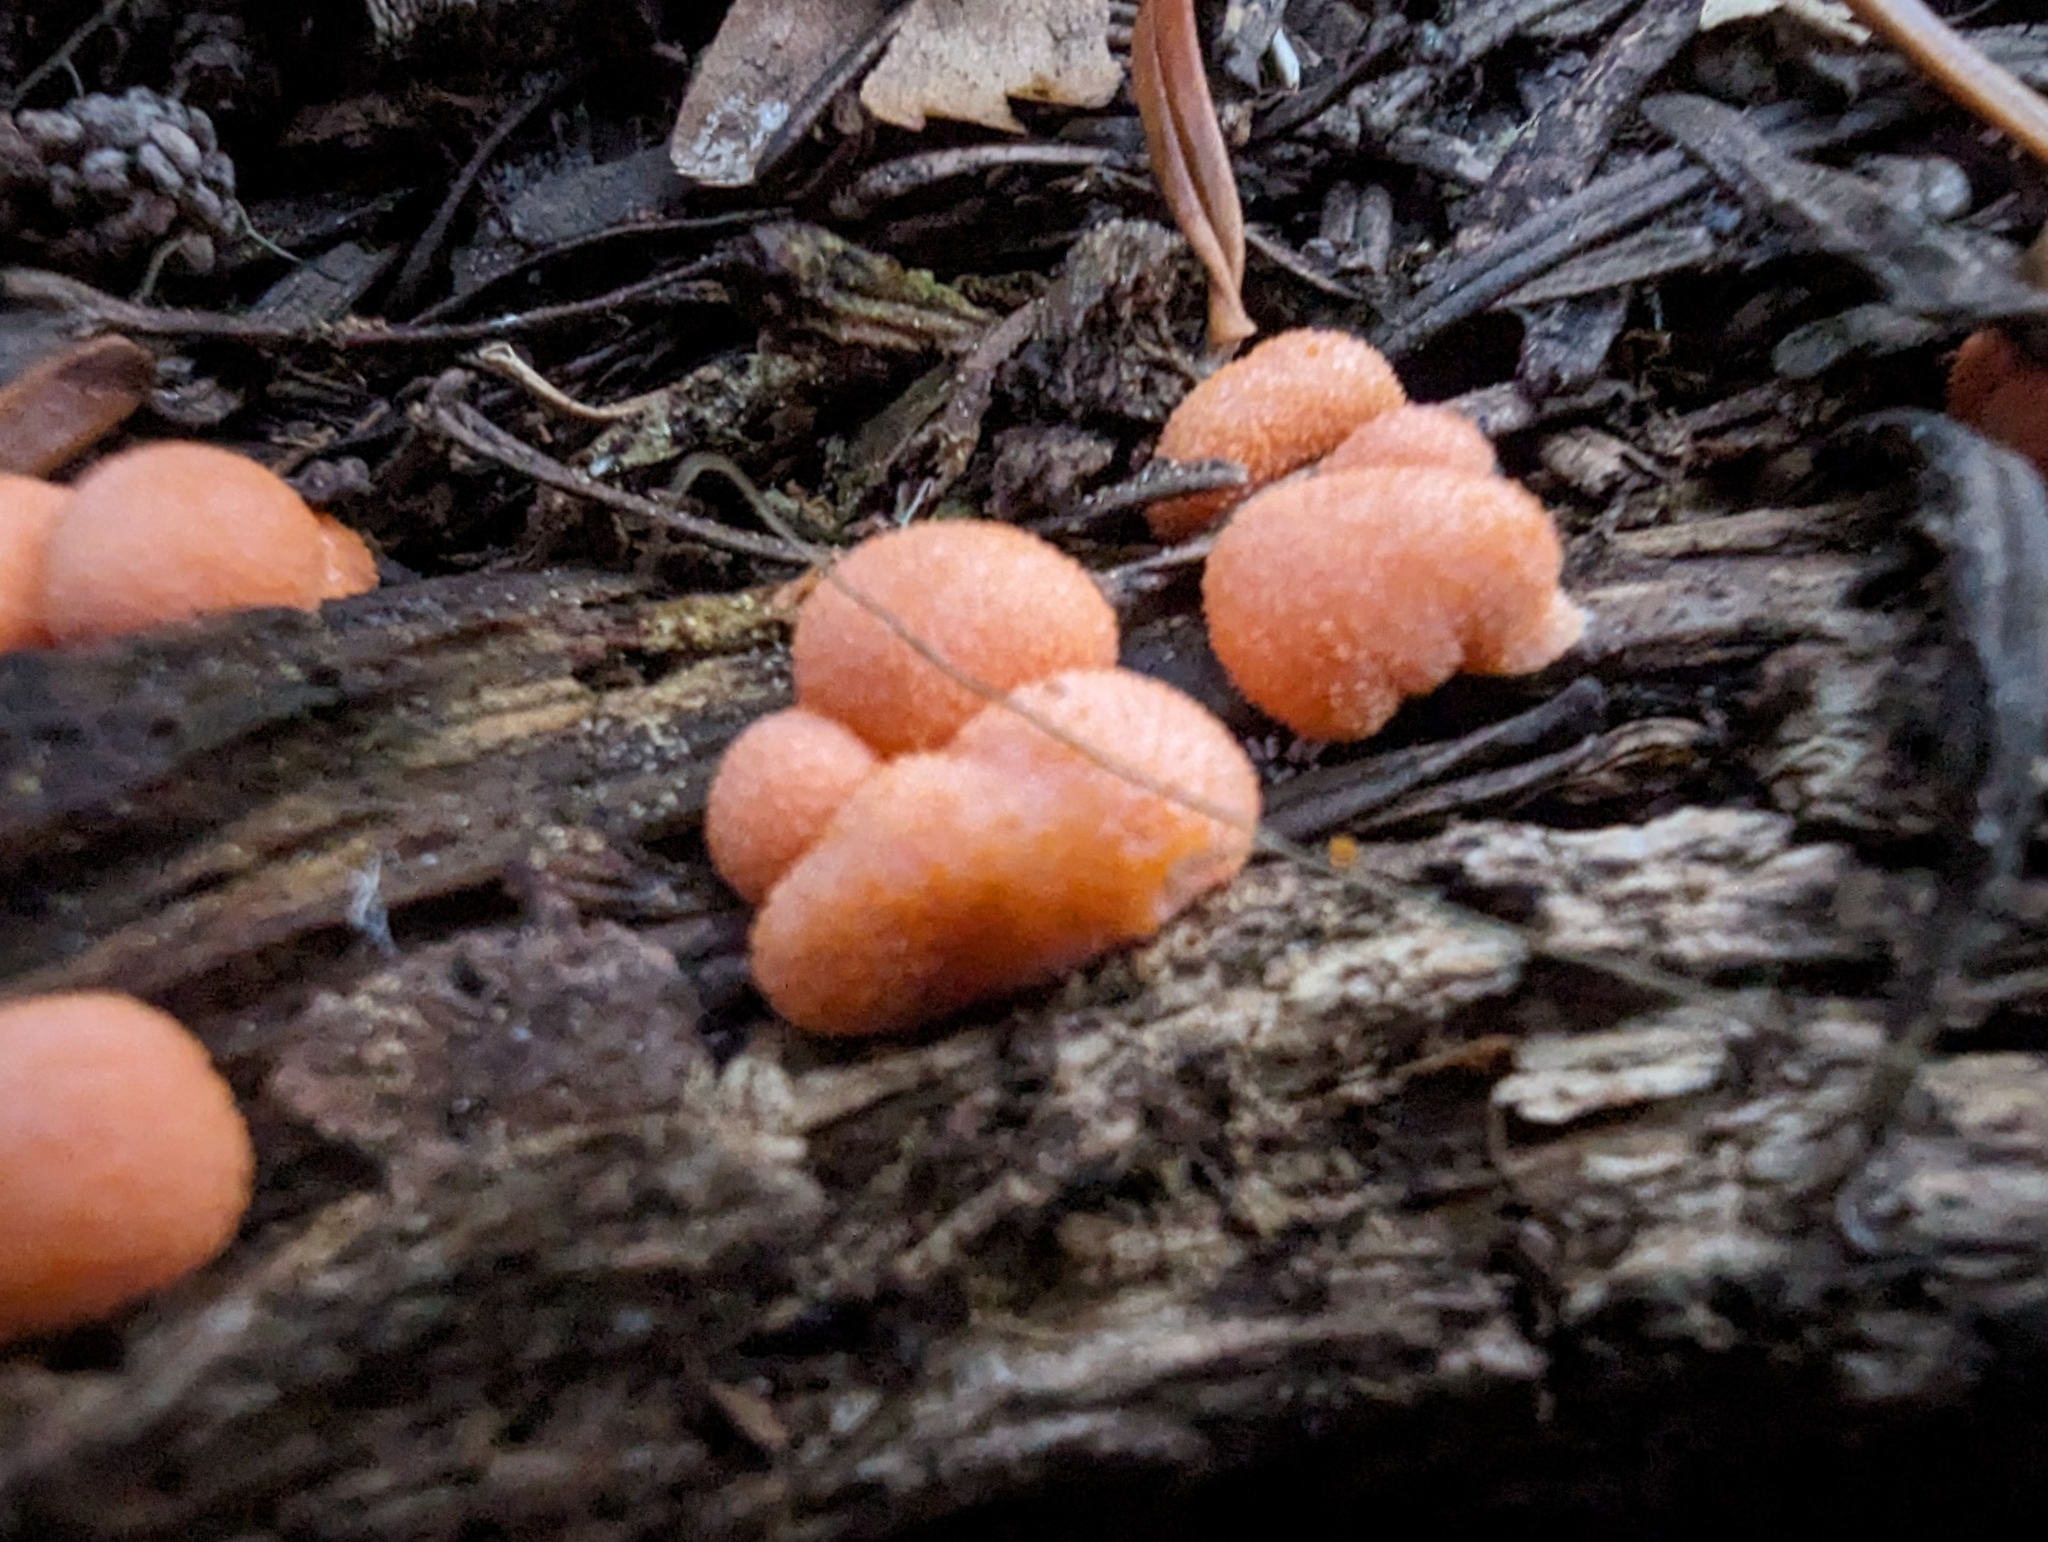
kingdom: Protozoa
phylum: Mycetozoa
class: Myxomycetes
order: Cribrariales
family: Tubiferaceae
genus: Lycogala
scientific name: Lycogala epidendrum
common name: Wolf's milk
